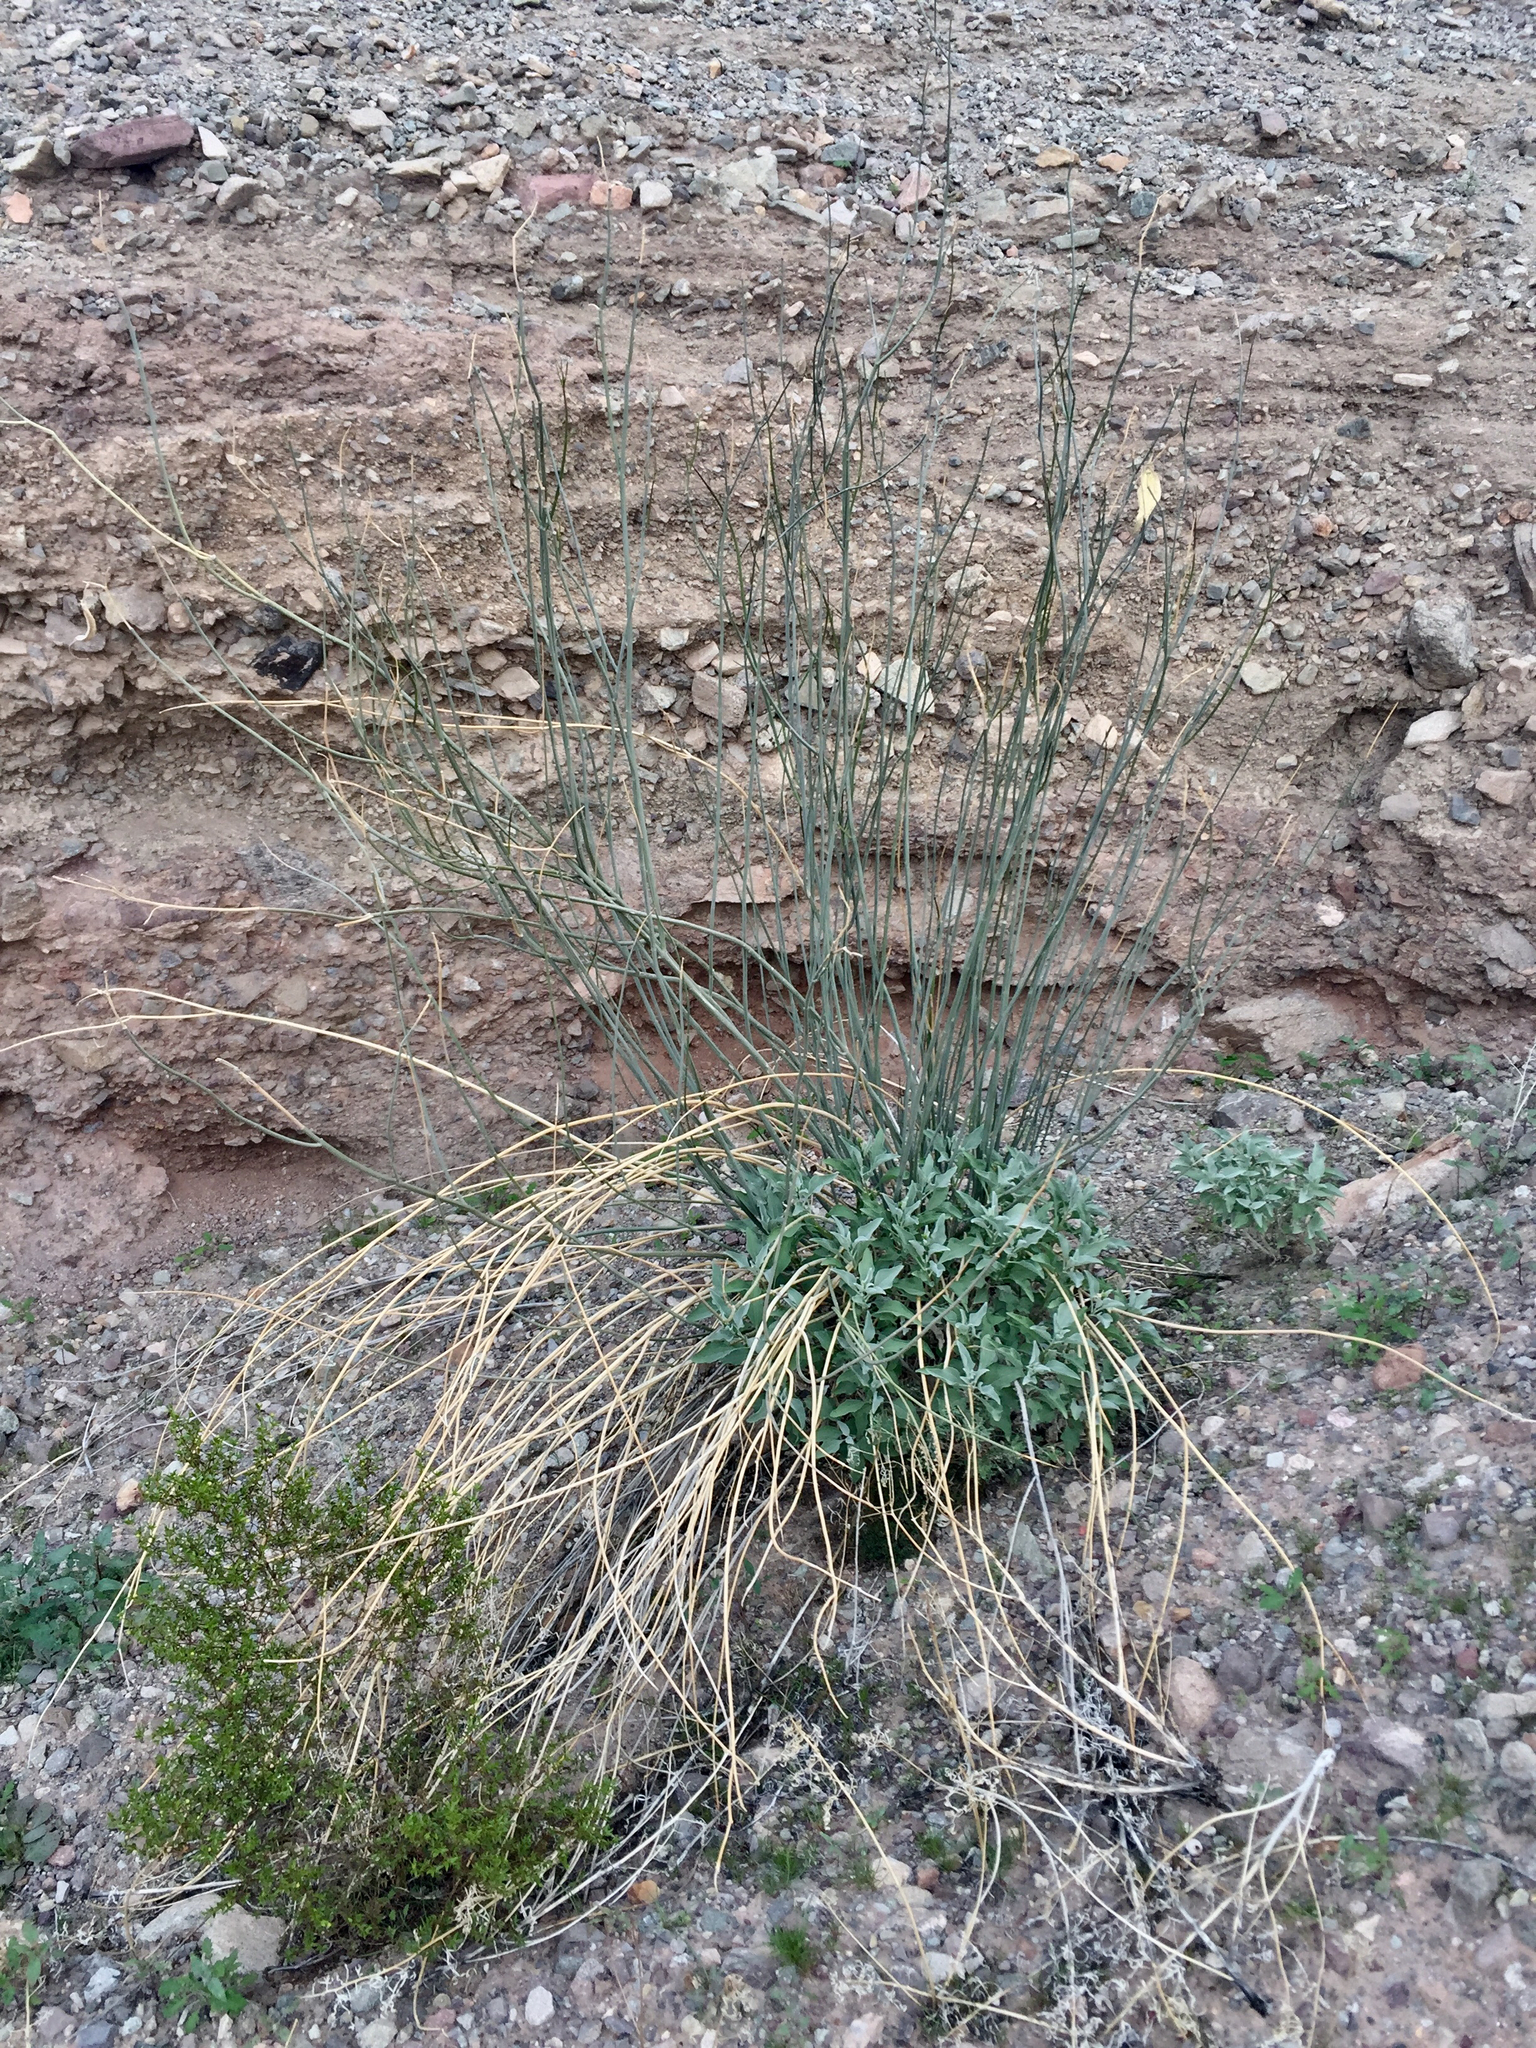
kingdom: Plantae
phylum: Tracheophyta
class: Gnetopsida
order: Ephedrales
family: Ephedraceae
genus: Ephedra
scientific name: Ephedra viridis
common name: Green ephedra
